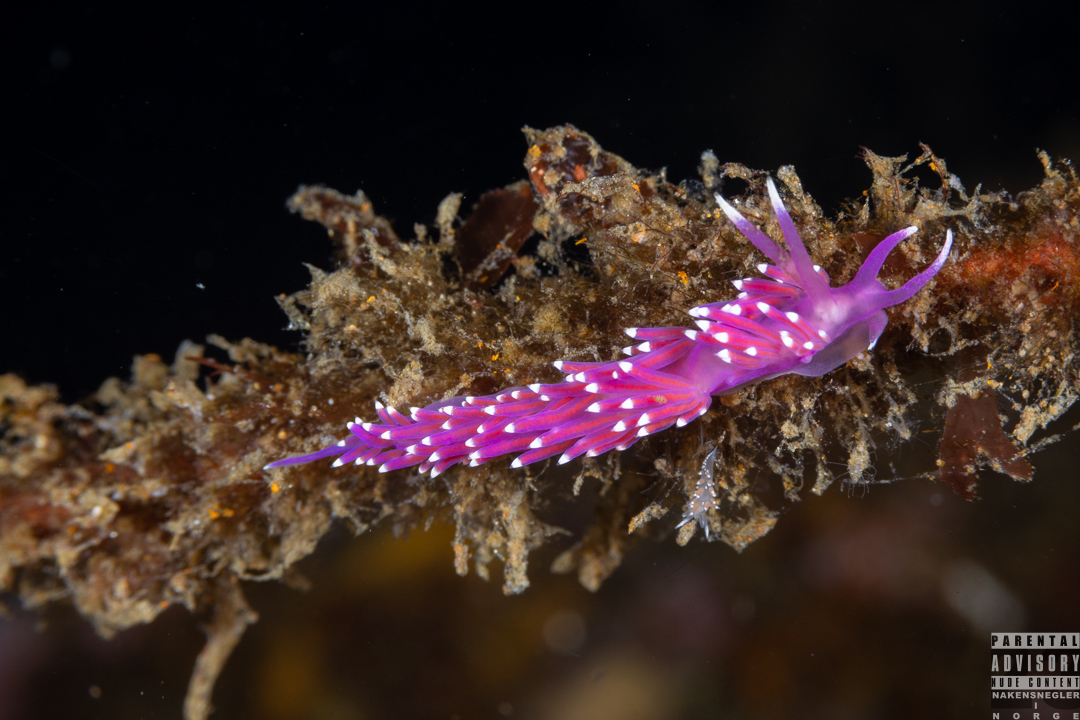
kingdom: Animalia
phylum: Mollusca
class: Gastropoda
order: Nudibranchia
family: Flabellinidae
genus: Edmundsella
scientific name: Edmundsella pedata
